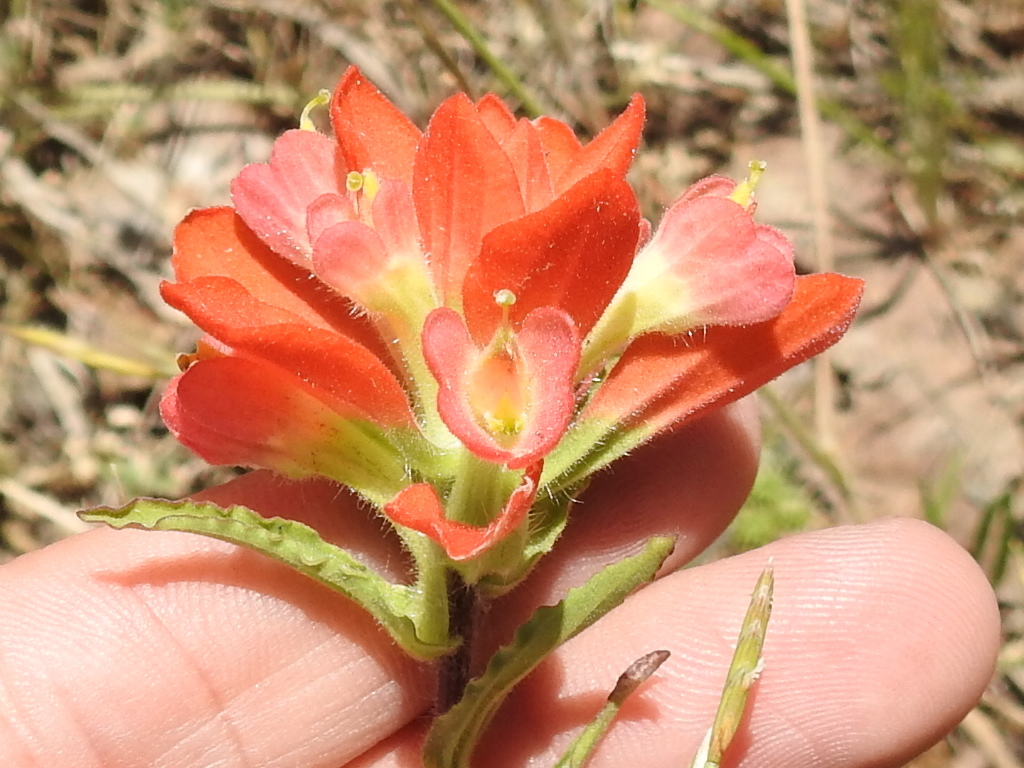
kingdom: Plantae
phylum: Tracheophyta
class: Magnoliopsida
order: Lamiales
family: Orobanchaceae
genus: Castilleja
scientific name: Castilleja indivisa
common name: Texas paintbrush
